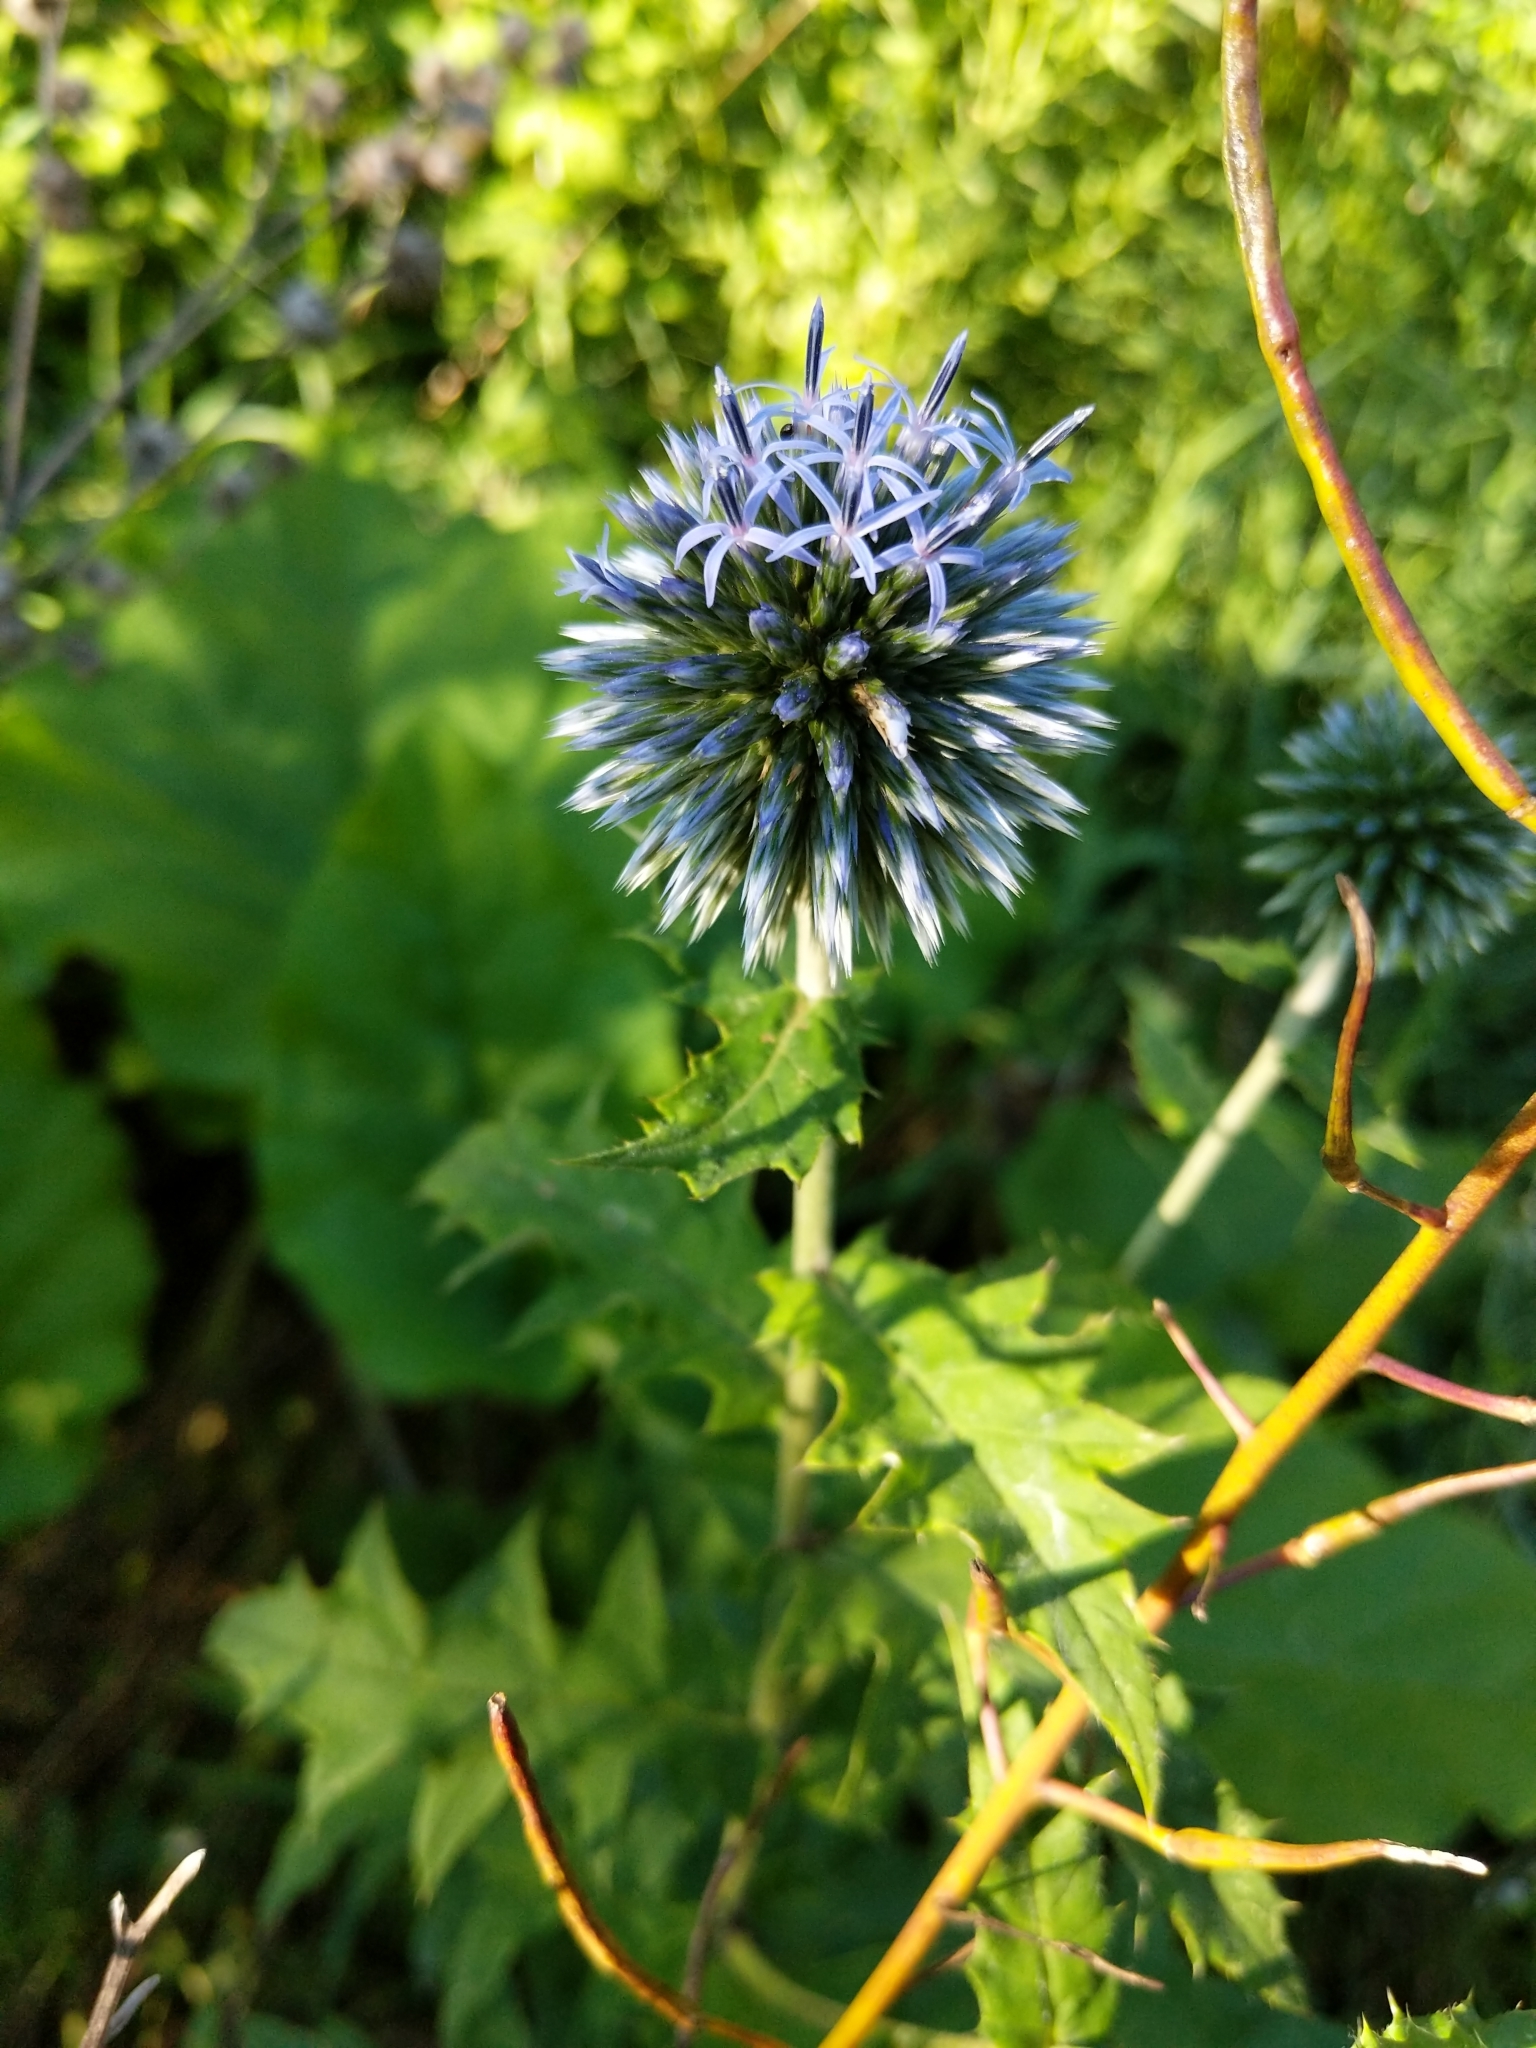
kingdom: Plantae
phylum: Tracheophyta
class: Magnoliopsida
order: Asterales
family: Asteraceae
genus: Echinops
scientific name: Echinops sphaerocephalus
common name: Glandular globe-thistle
